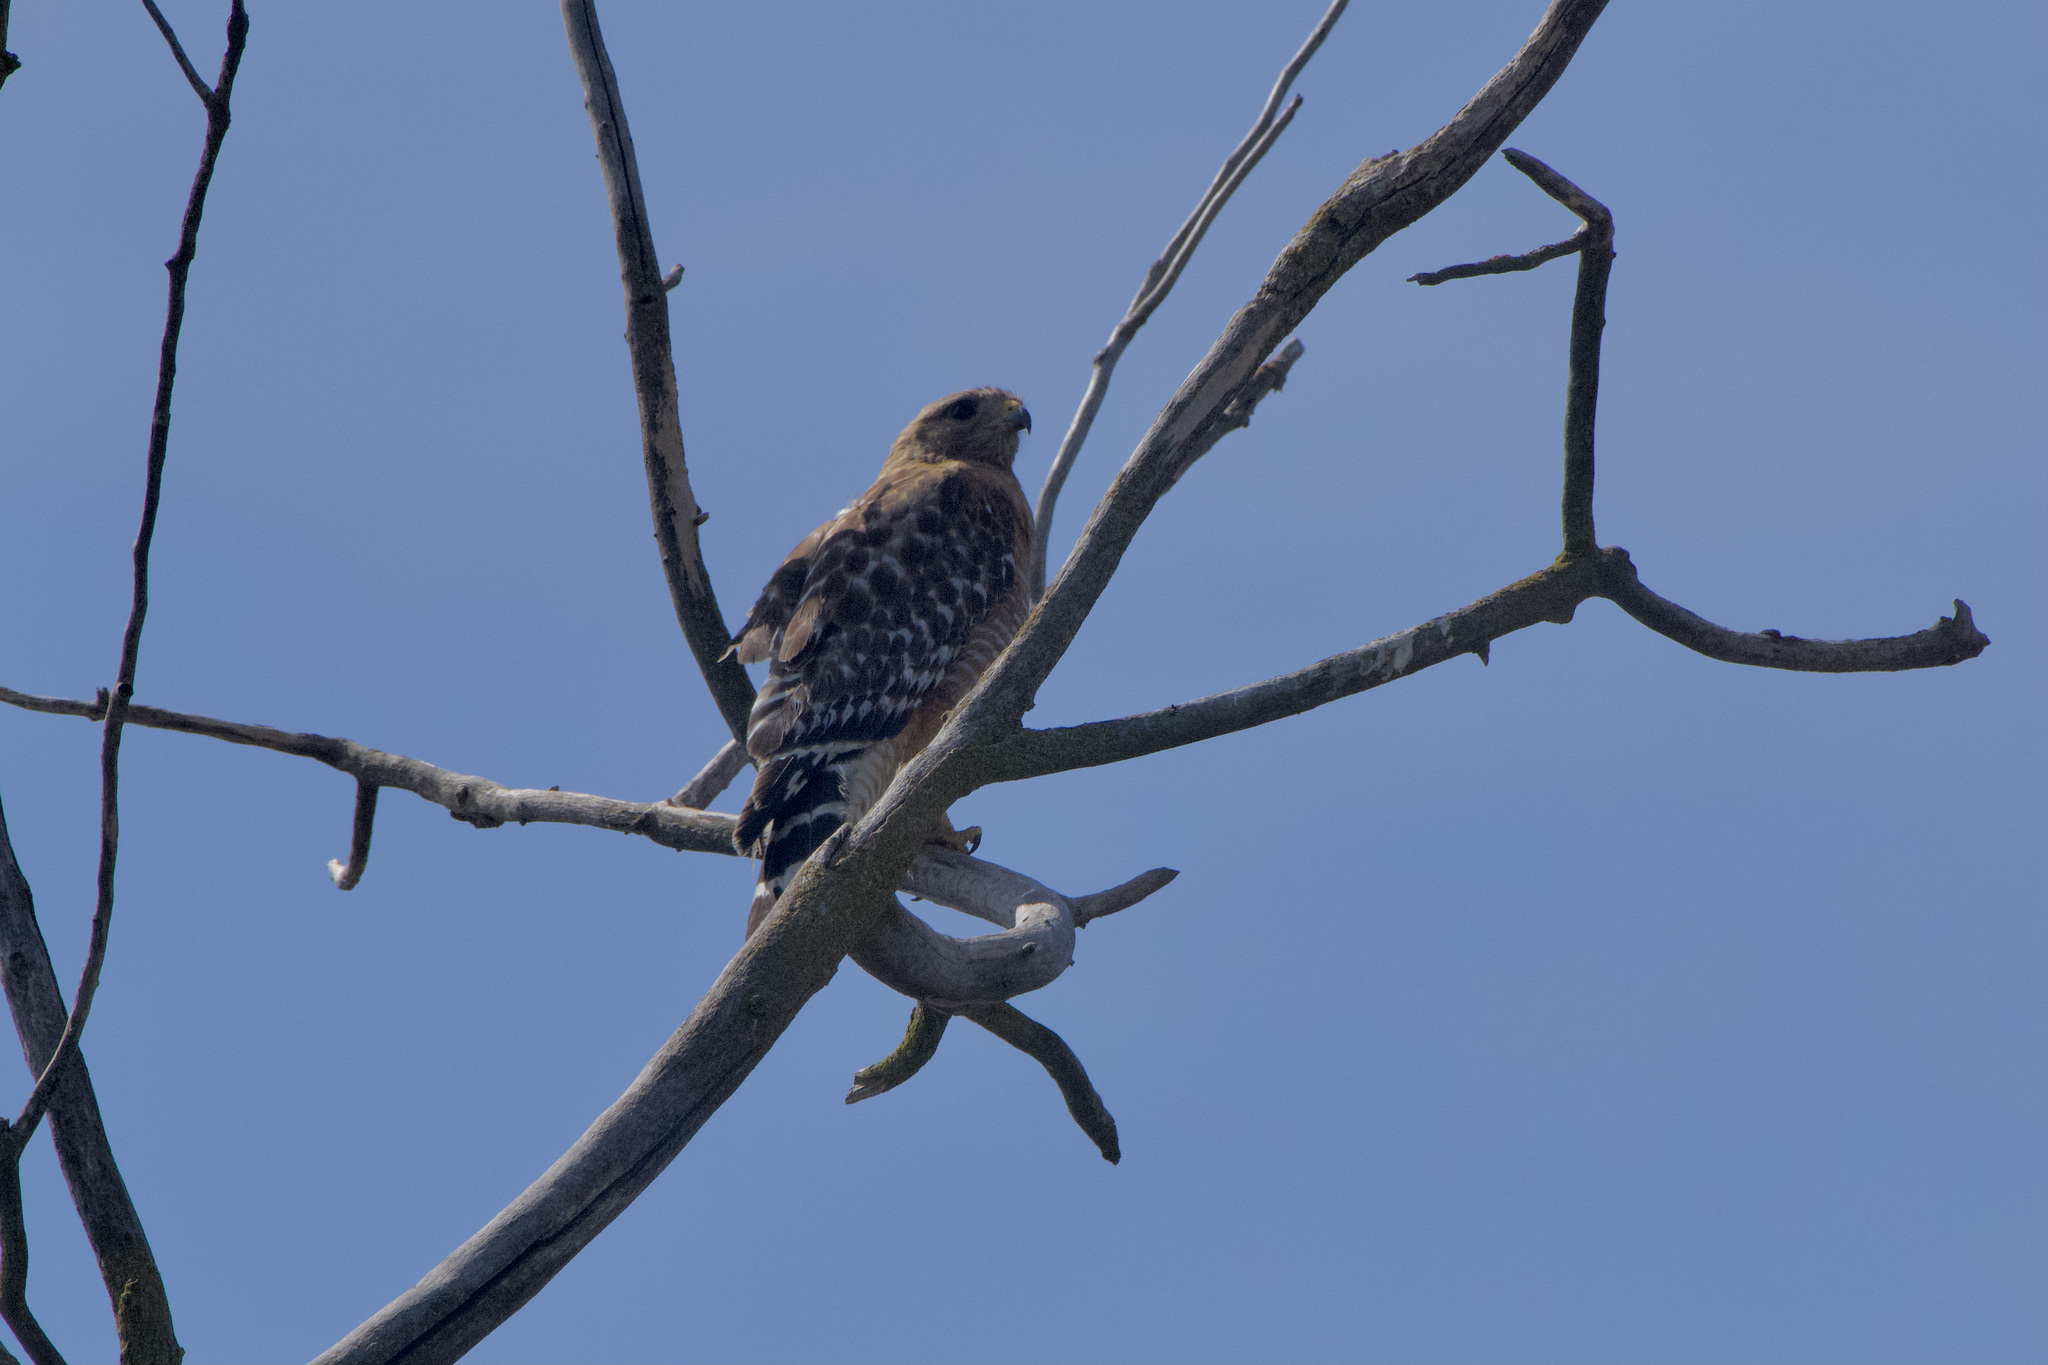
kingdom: Animalia
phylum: Chordata
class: Aves
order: Accipitriformes
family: Accipitridae
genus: Buteo
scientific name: Buteo lineatus
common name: Red-shouldered hawk
